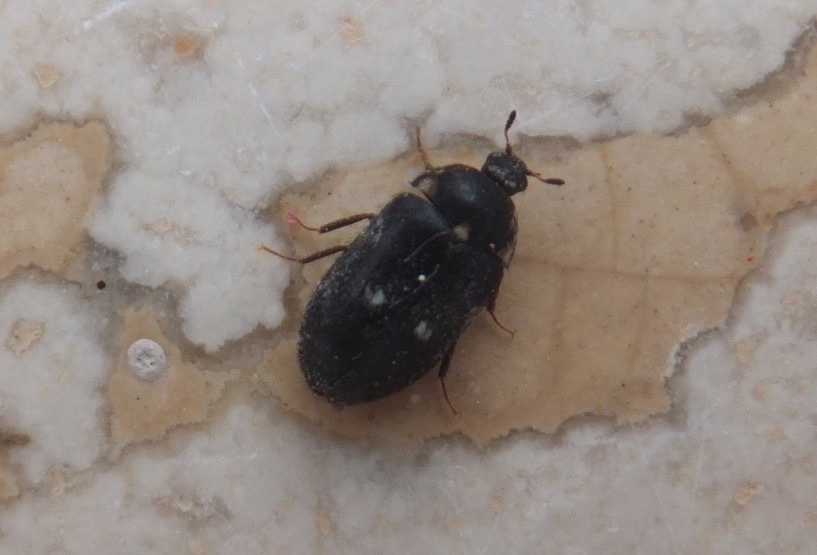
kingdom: Animalia
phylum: Arthropoda
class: Insecta
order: Coleoptera
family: Dermestidae
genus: Attagenus
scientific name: Attagenus pellio
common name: Two-spotted carpet beetle
